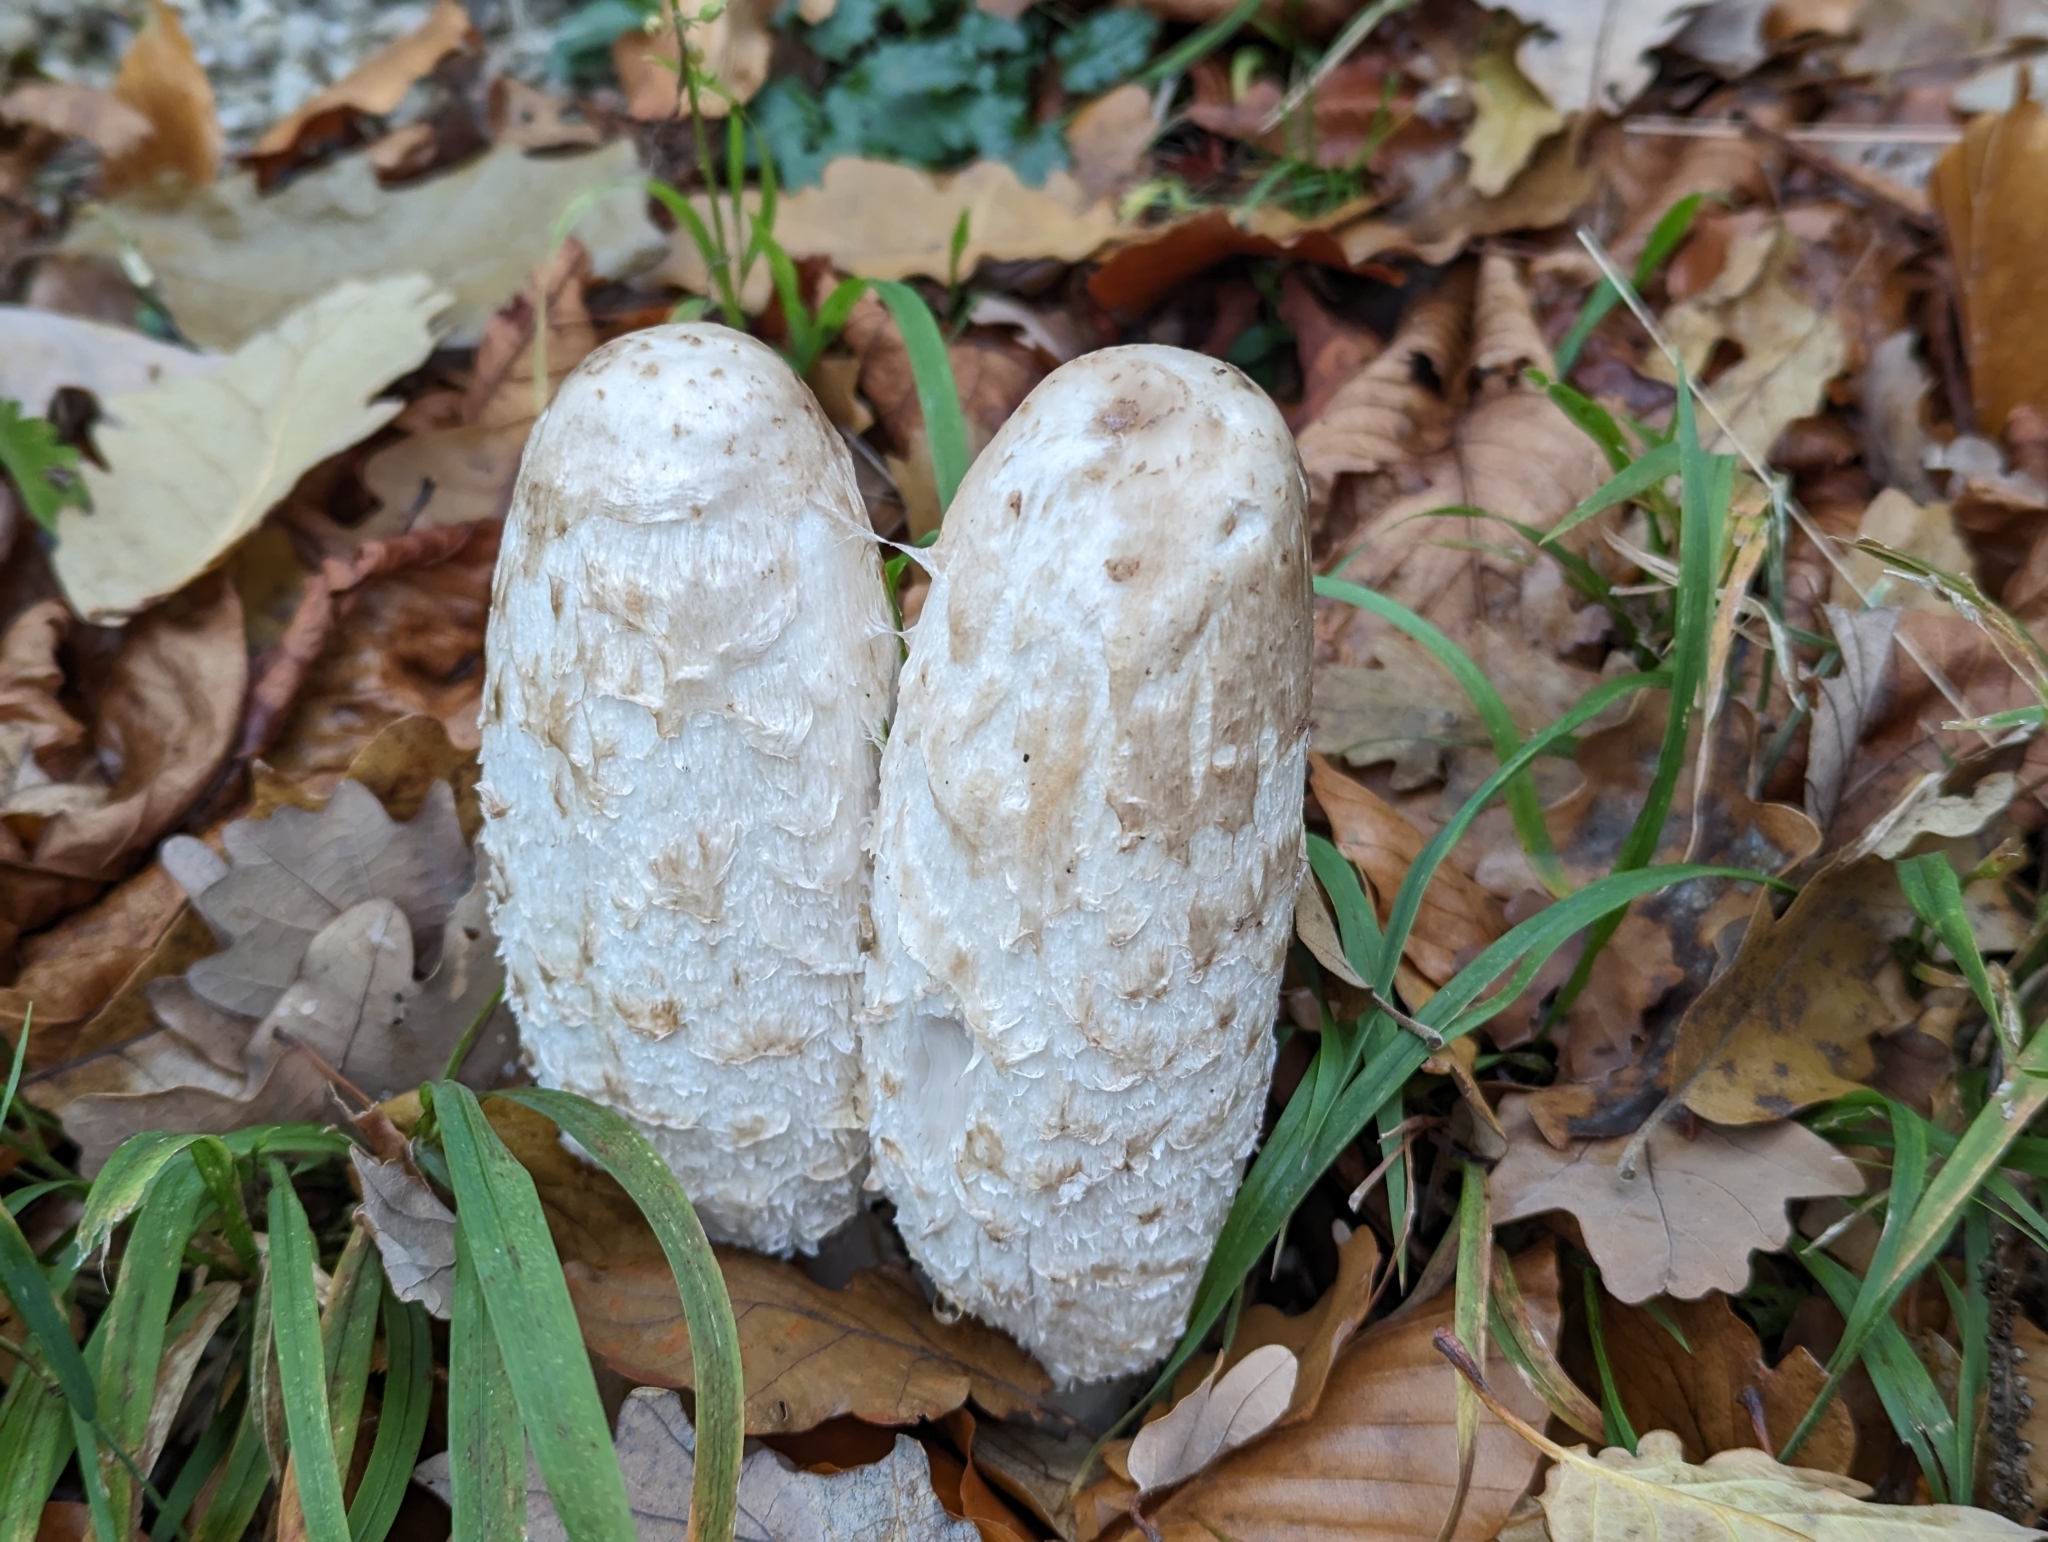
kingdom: Fungi
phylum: Basidiomycota
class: Agaricomycetes
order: Agaricales
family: Agaricaceae
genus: Coprinus
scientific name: Coprinus comatus
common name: Lawyer's wig
